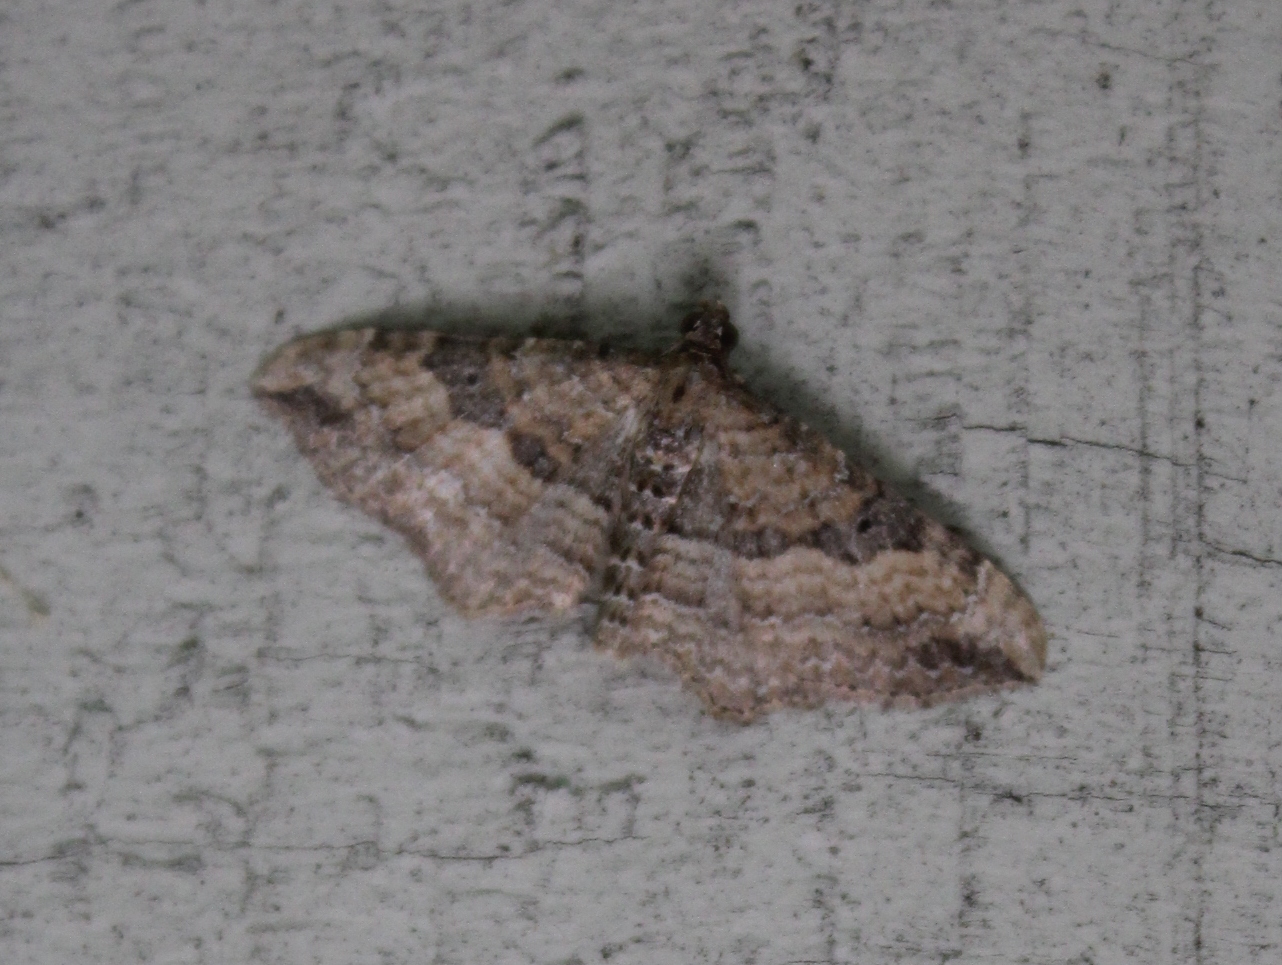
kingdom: Animalia
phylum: Arthropoda
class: Insecta
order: Lepidoptera
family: Geometridae
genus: Costaconvexa
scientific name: Costaconvexa centrostrigaria
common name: Bent-line carpet
